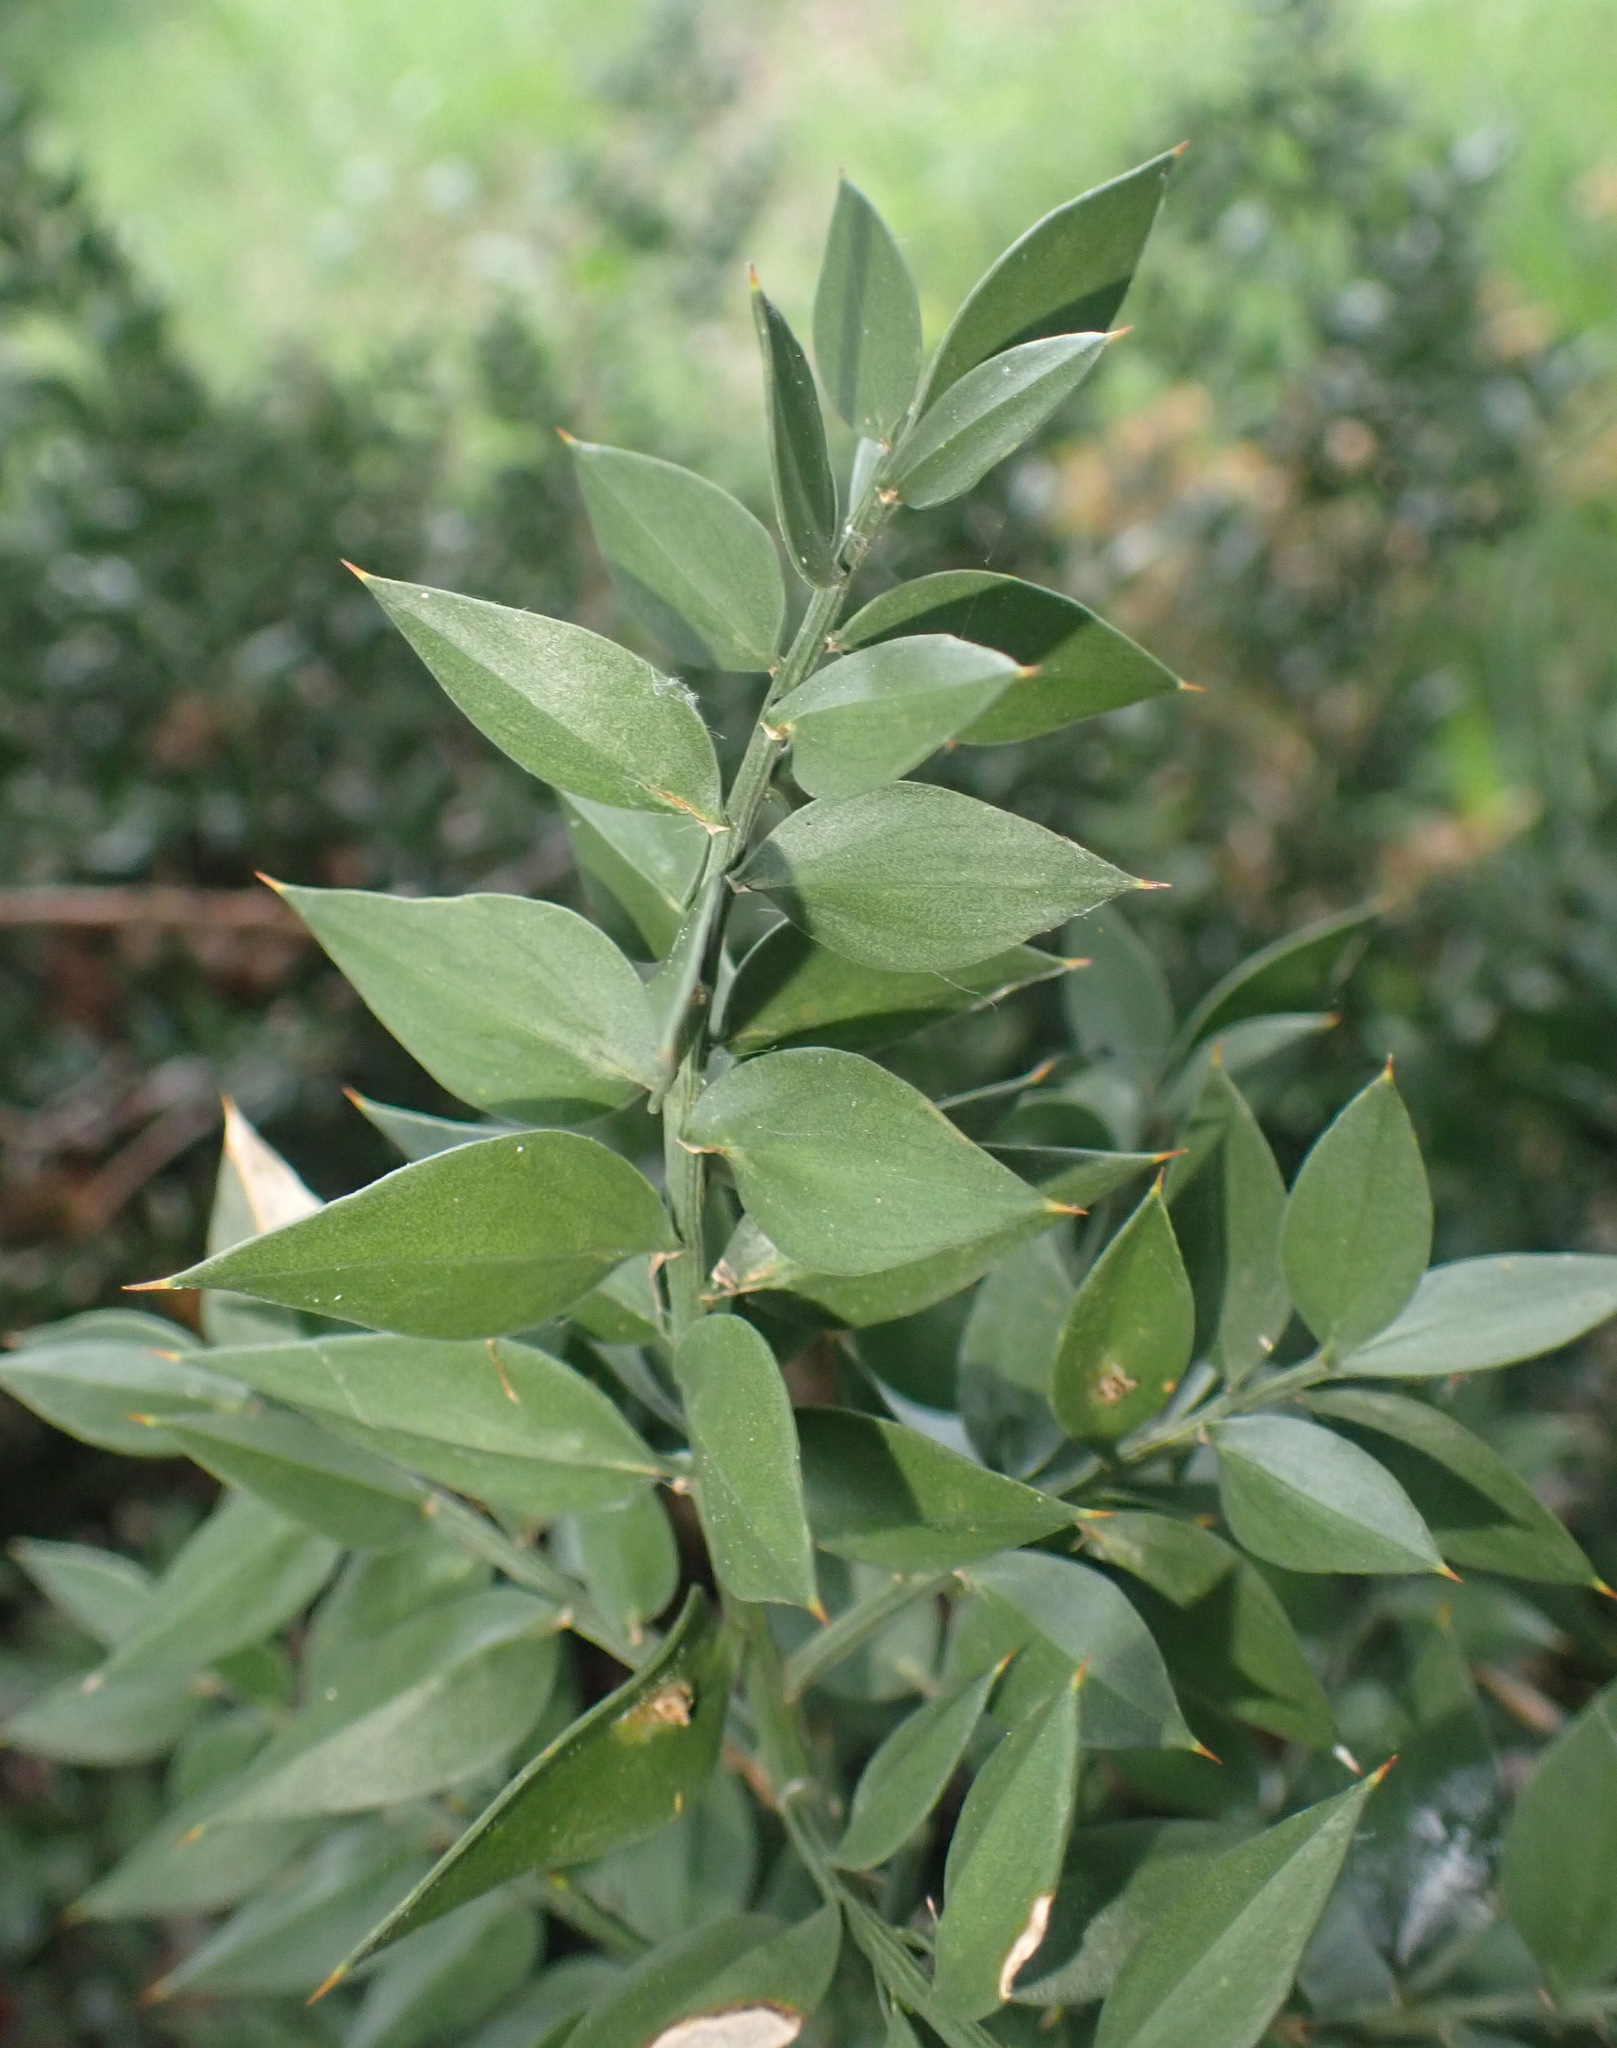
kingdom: Plantae
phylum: Tracheophyta
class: Liliopsida
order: Asparagales
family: Asparagaceae
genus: Ruscus
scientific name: Ruscus aculeatus
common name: Butcher's-broom
